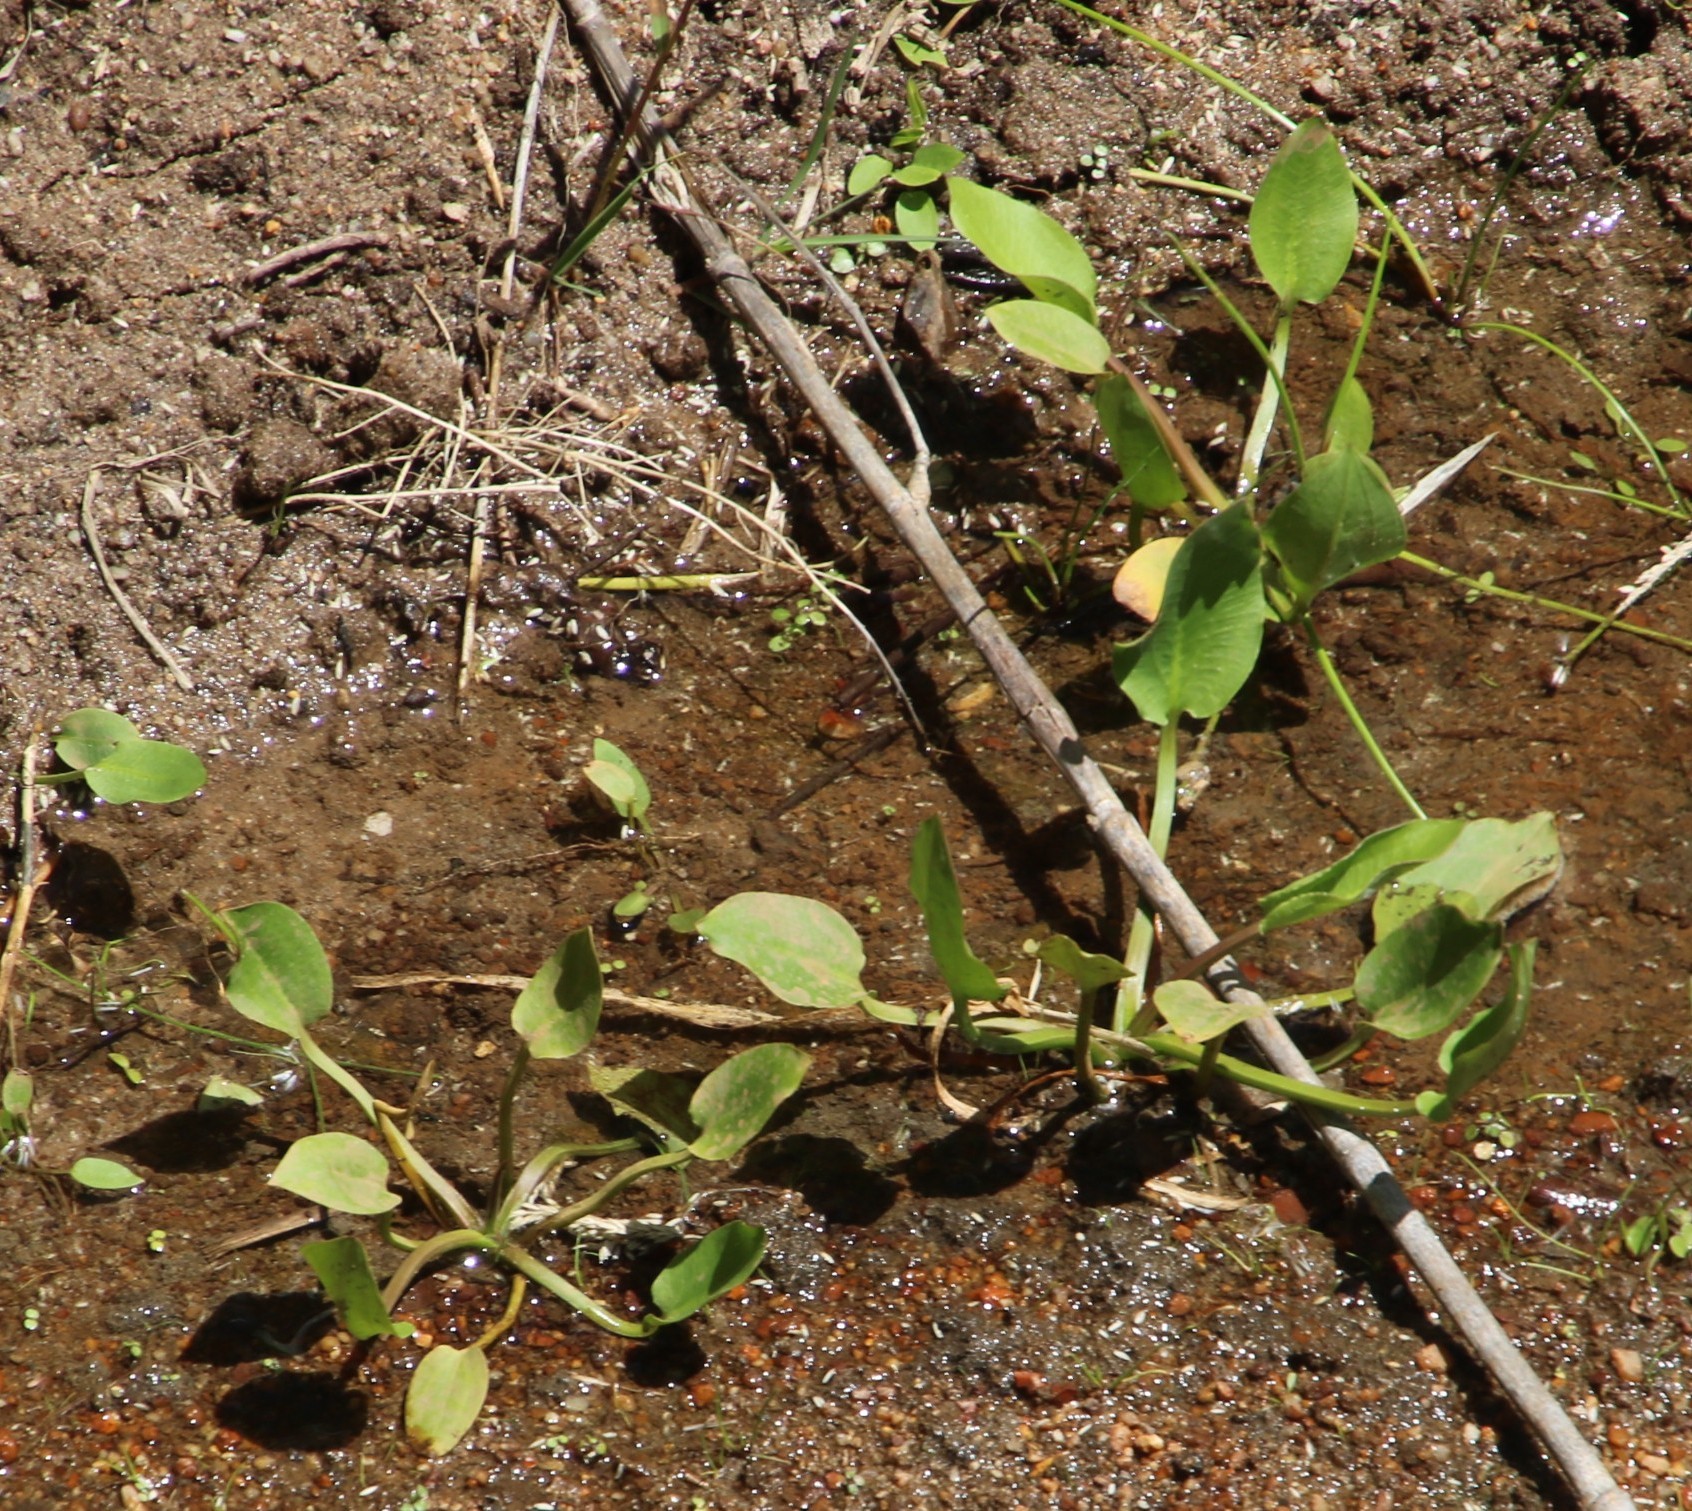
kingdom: Plantae
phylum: Tracheophyta
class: Liliopsida
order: Alismatales
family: Alismataceae
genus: Alisma
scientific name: Alisma plantago-aquatica
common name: Water-plantain
